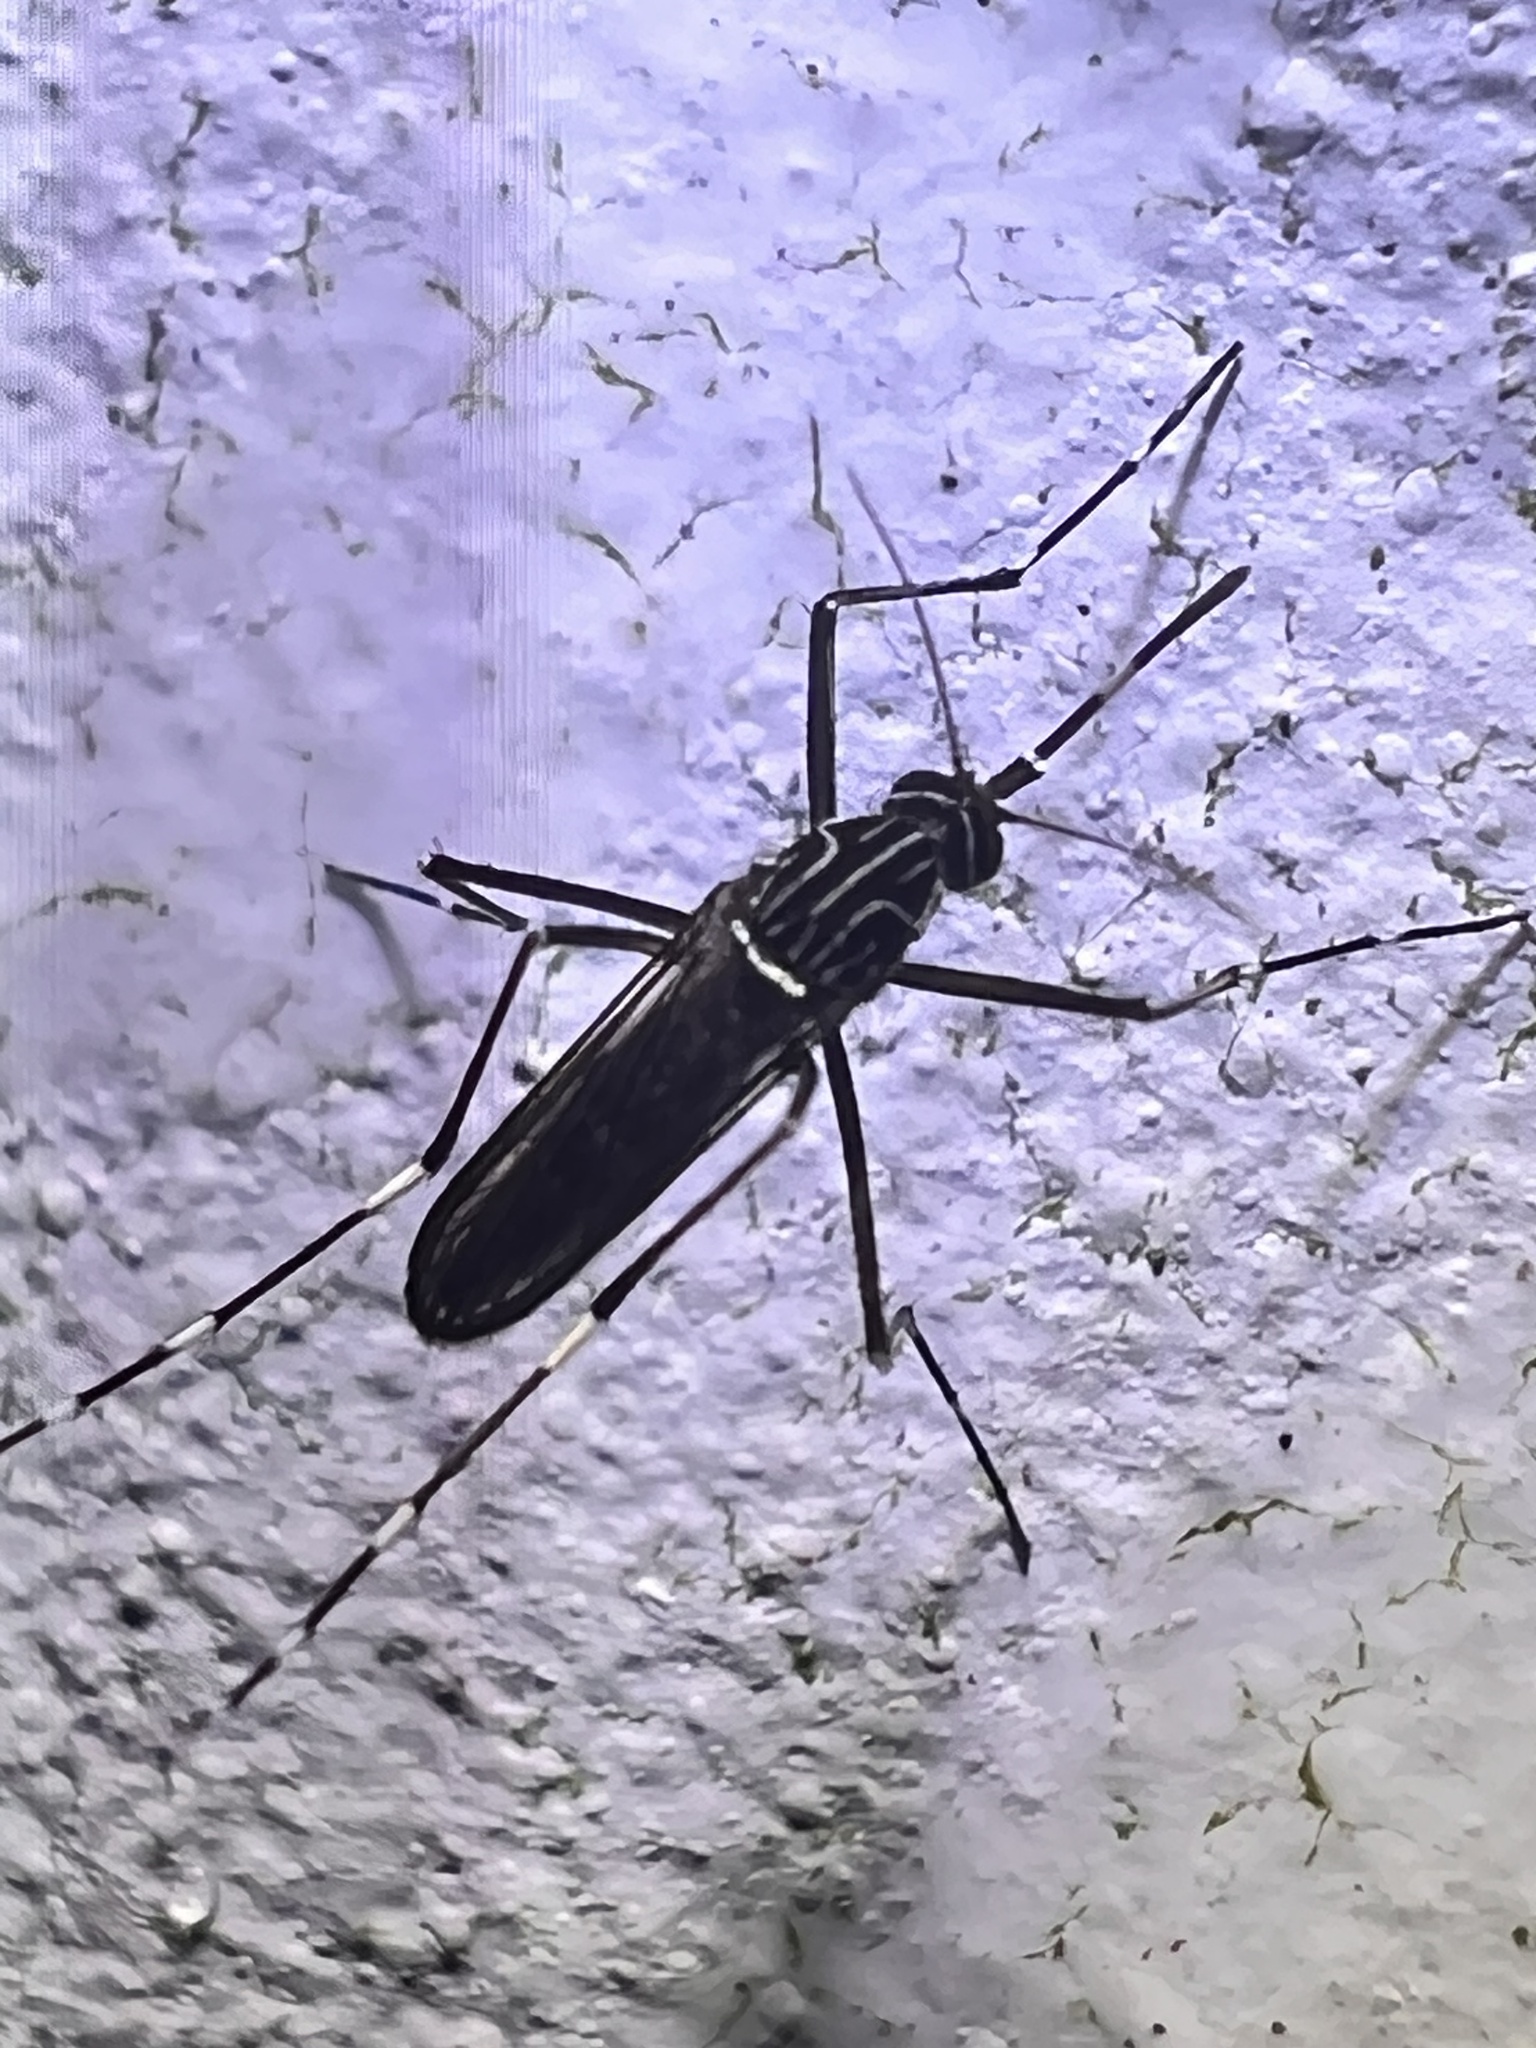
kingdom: Animalia
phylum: Arthropoda
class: Insecta
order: Diptera
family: Culicidae
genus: Aedes
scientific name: Aedes notoscriptus
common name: Australian backyard mosquito
